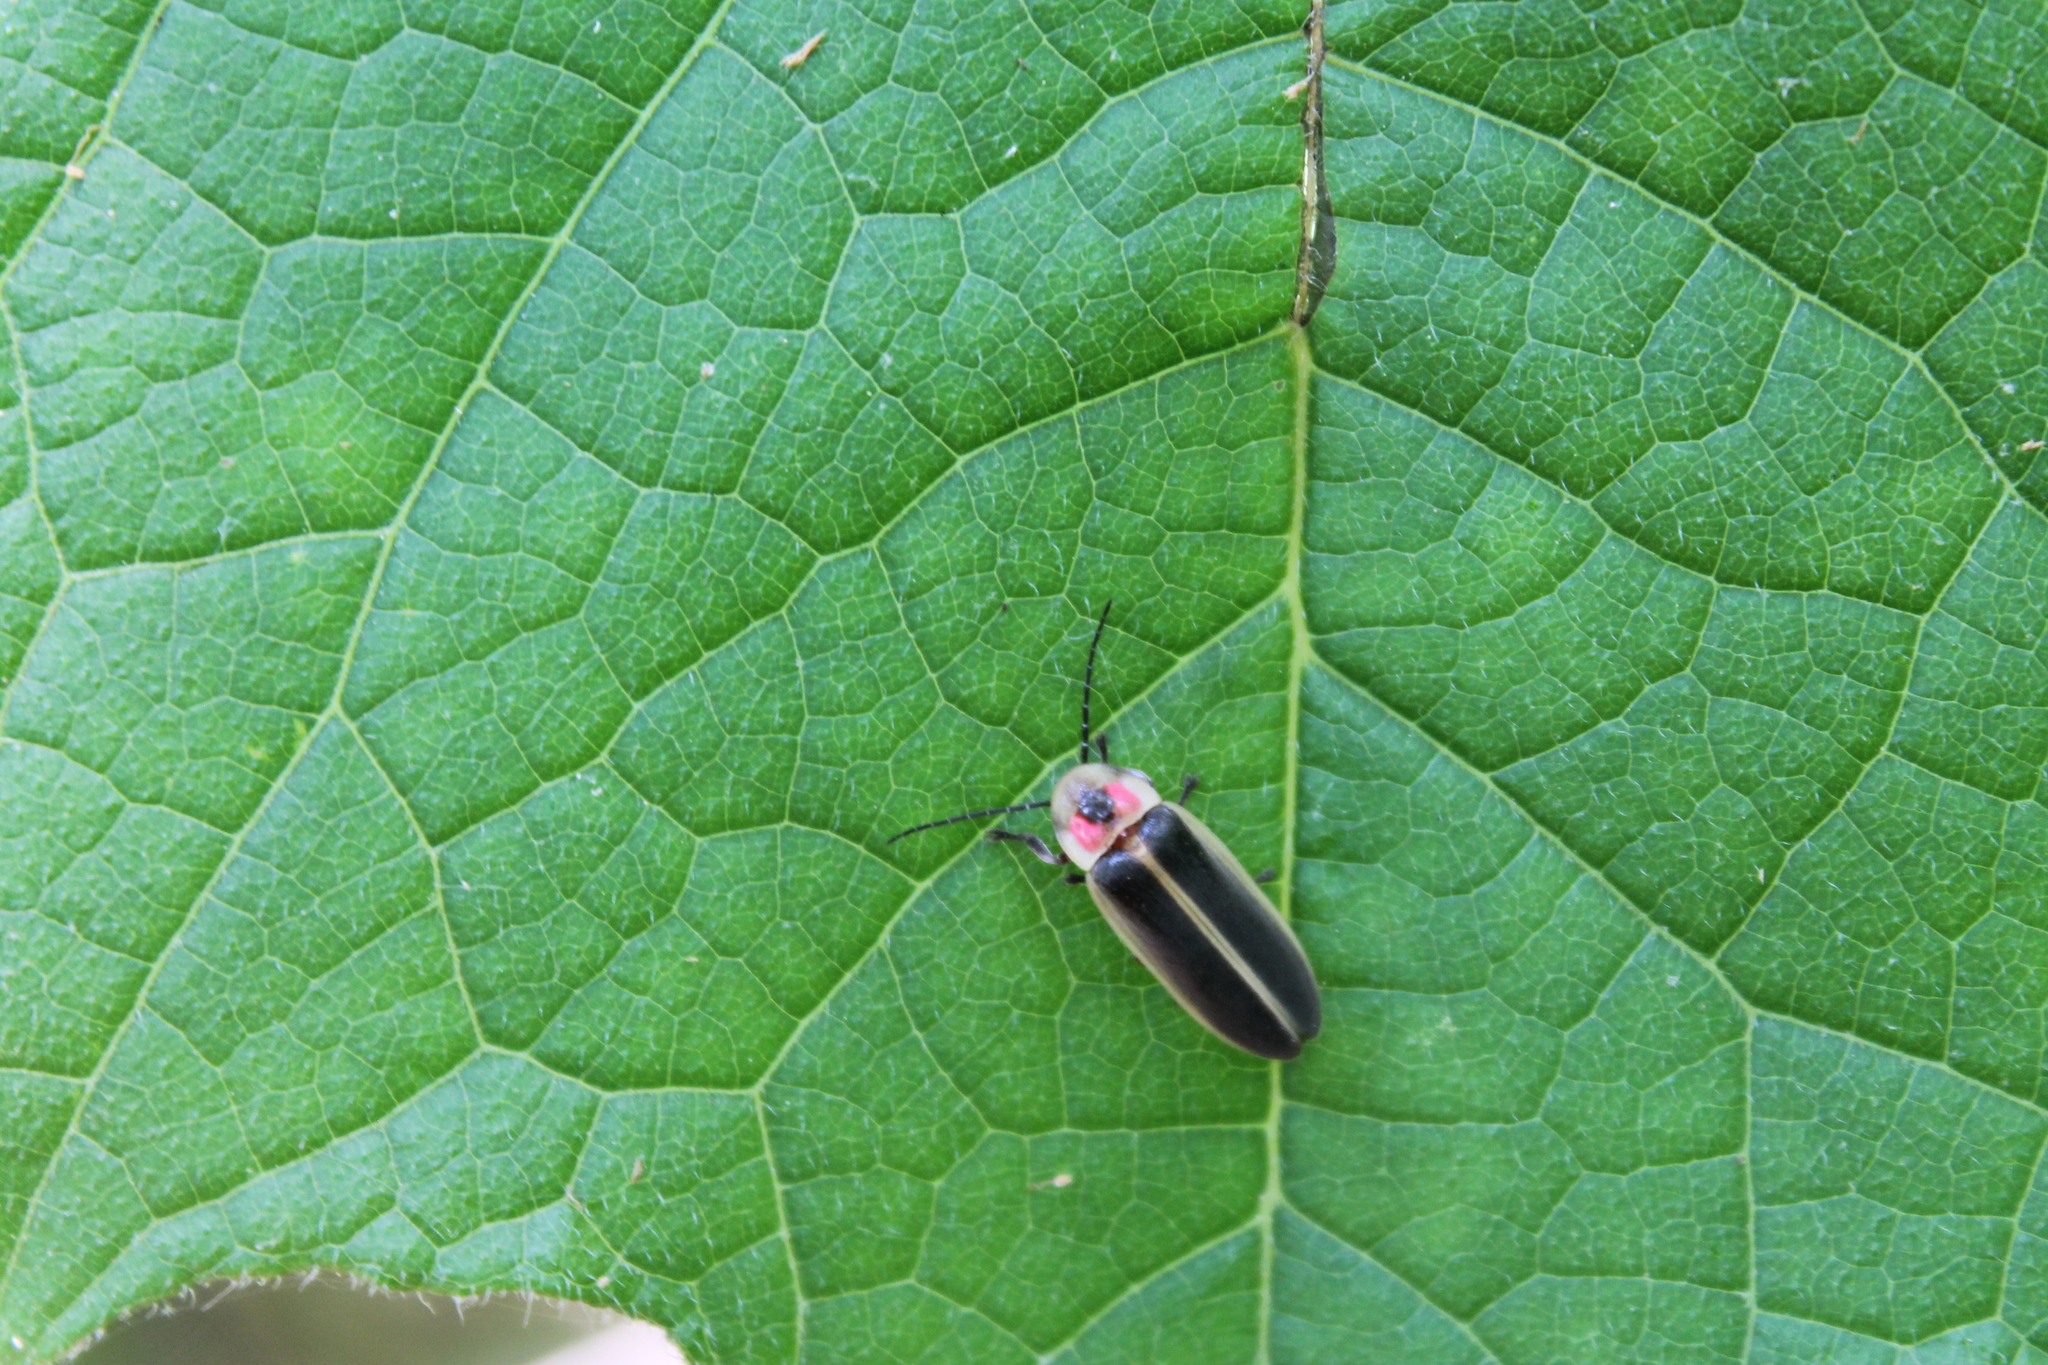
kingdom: Animalia
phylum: Arthropoda
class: Insecta
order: Coleoptera
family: Lampyridae
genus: Photinus
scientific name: Photinus pyralis
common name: Big dipper firefly
